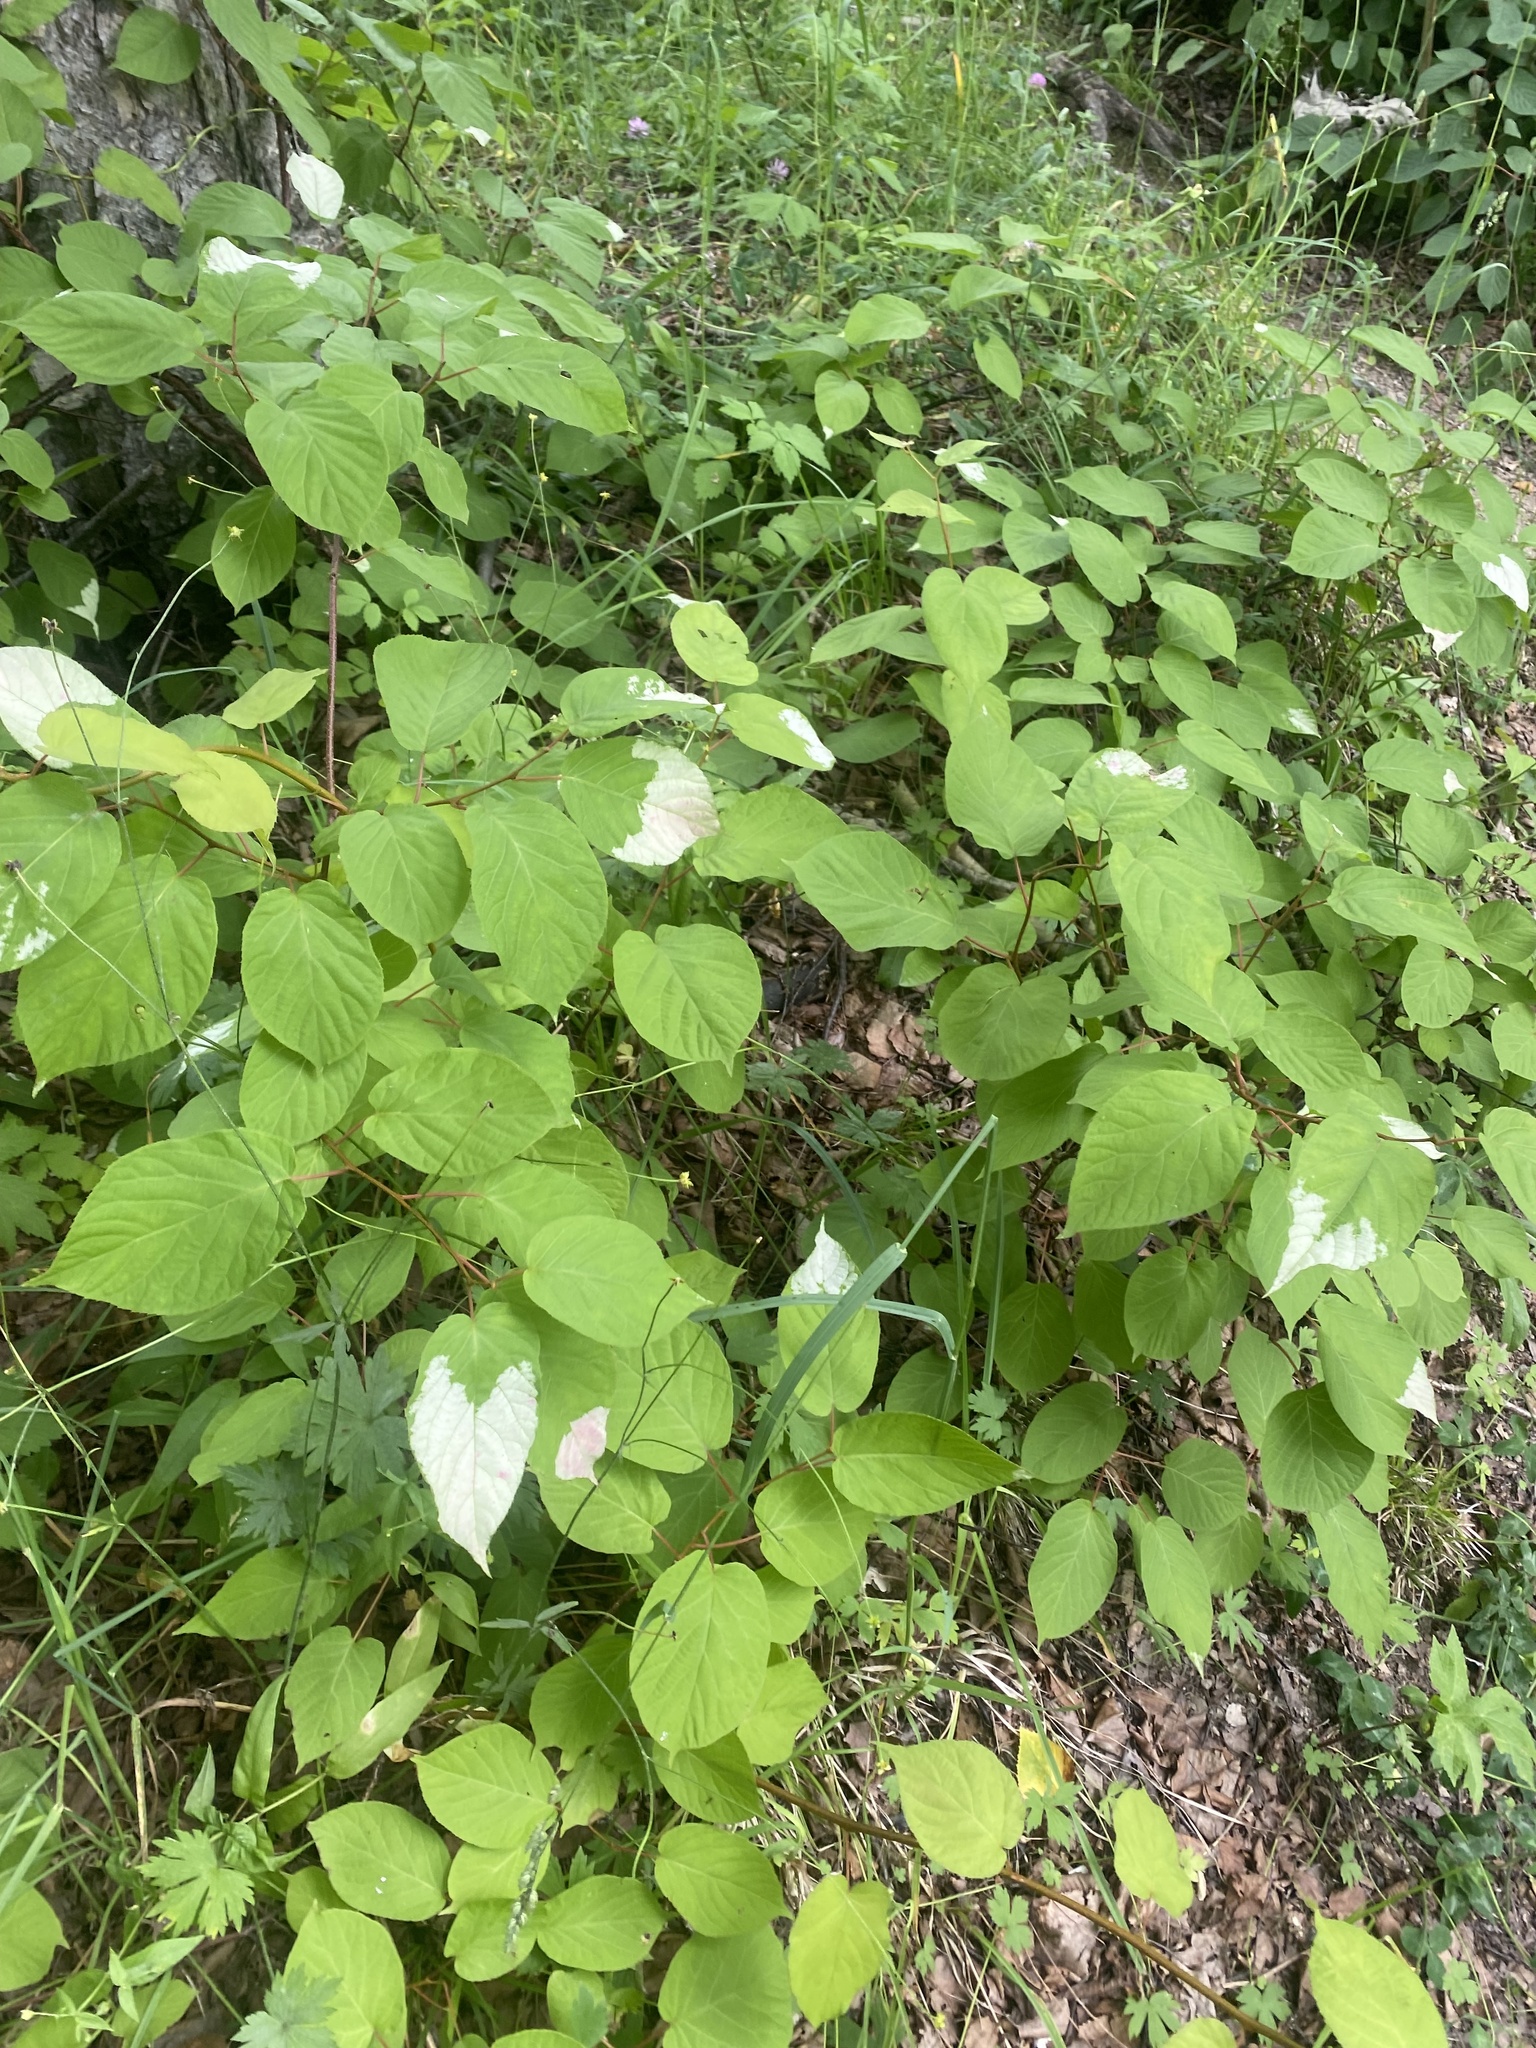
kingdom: Plantae
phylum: Tracheophyta
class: Magnoliopsida
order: Ericales
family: Actinidiaceae
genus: Actinidia
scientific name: Actinidia kolomikta
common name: Arctic beauty kiwi
